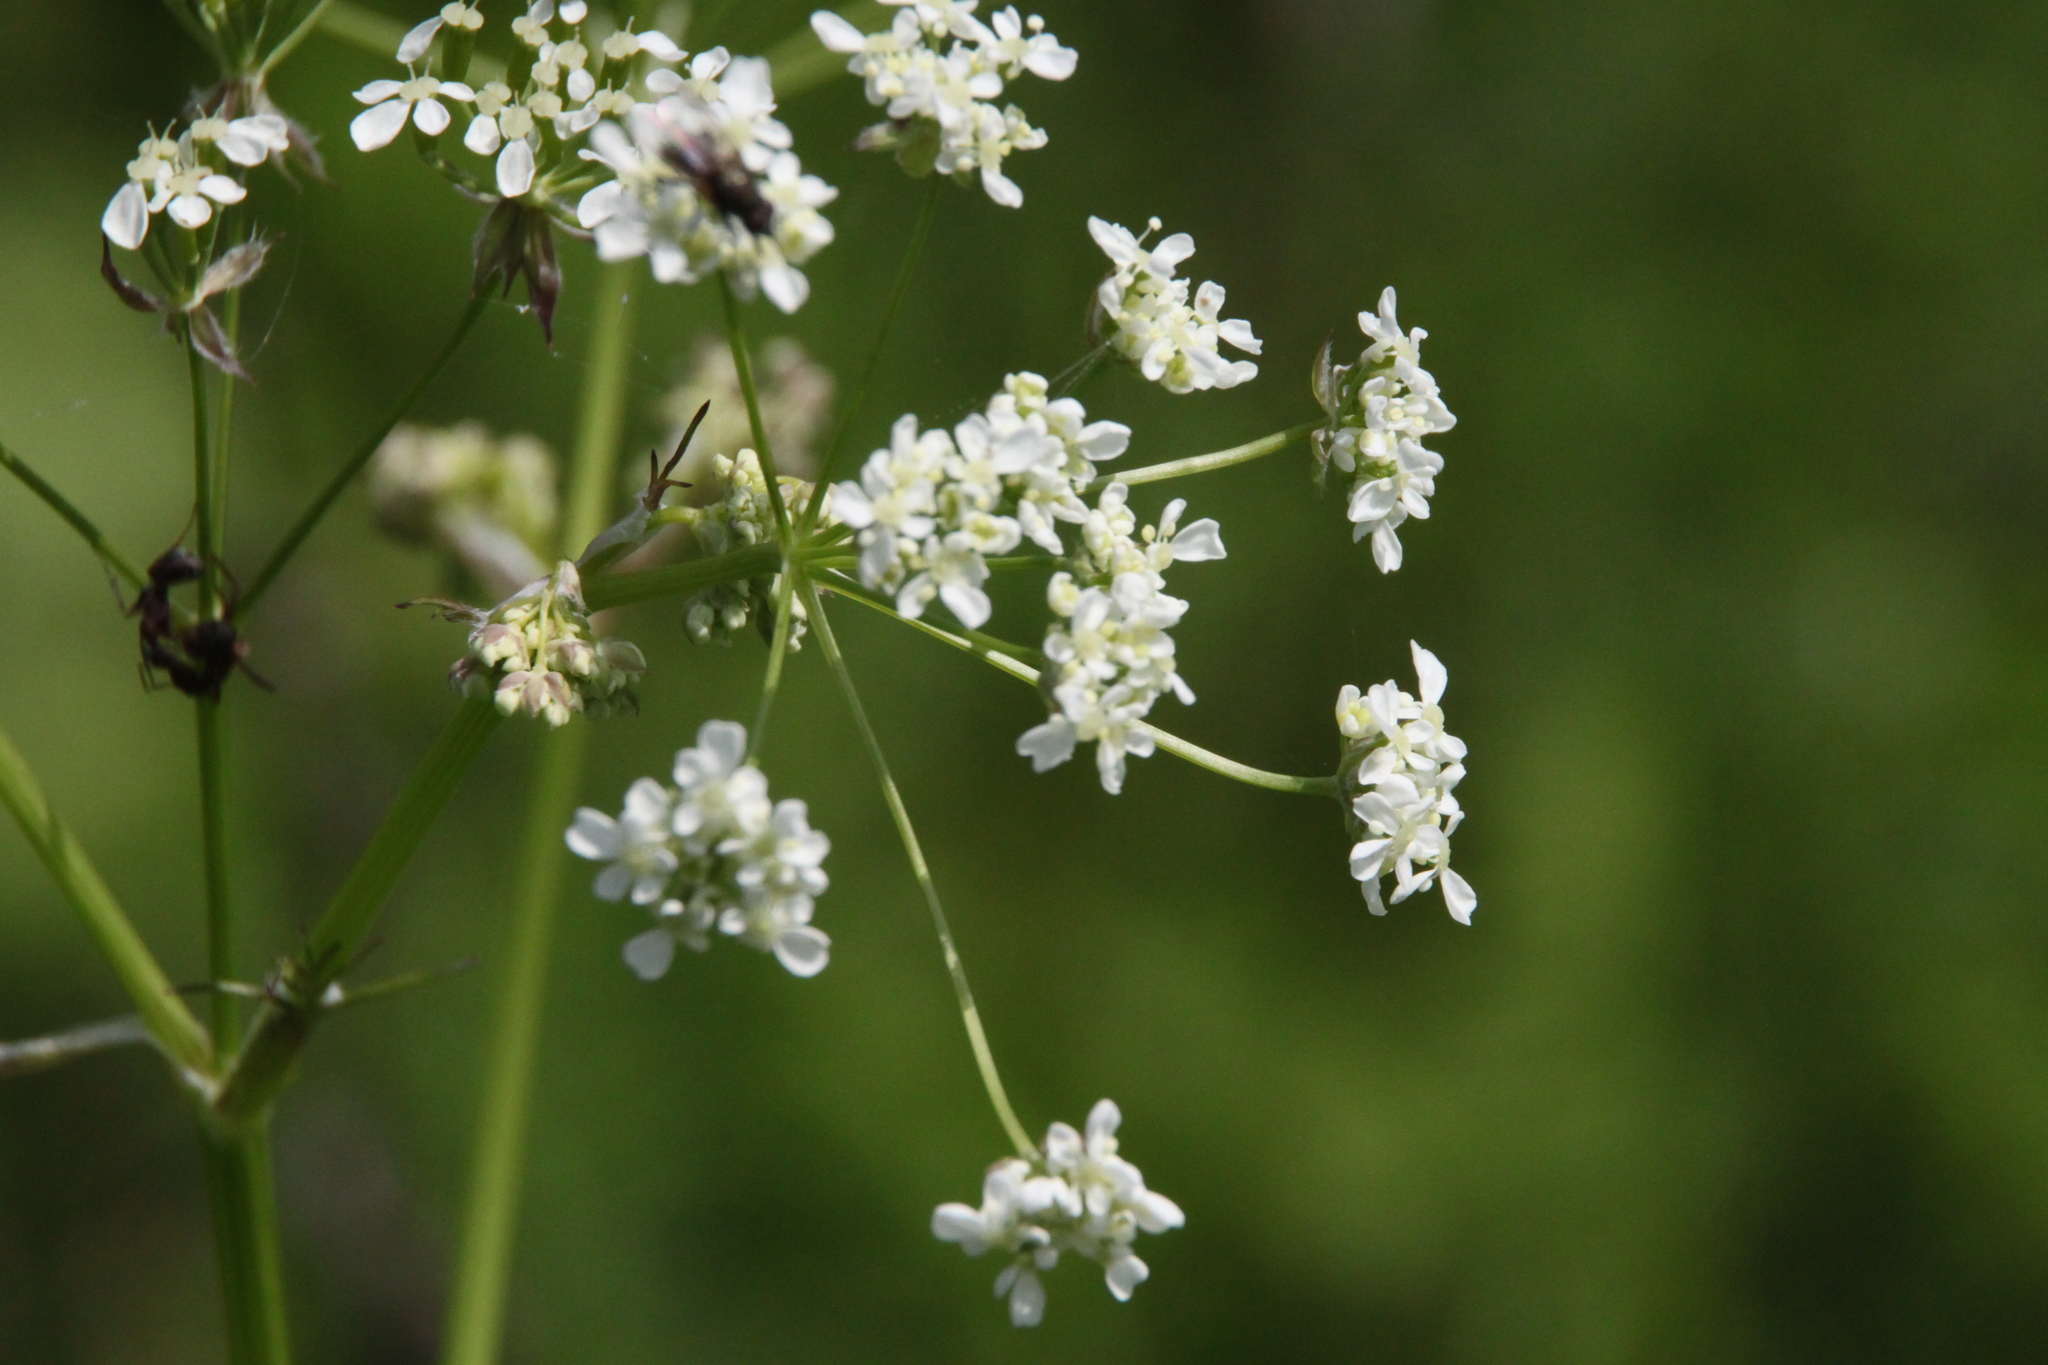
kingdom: Plantae
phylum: Tracheophyta
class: Magnoliopsida
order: Apiales
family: Apiaceae
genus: Anthriscus
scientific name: Anthriscus sylvestris
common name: Cow parsley
